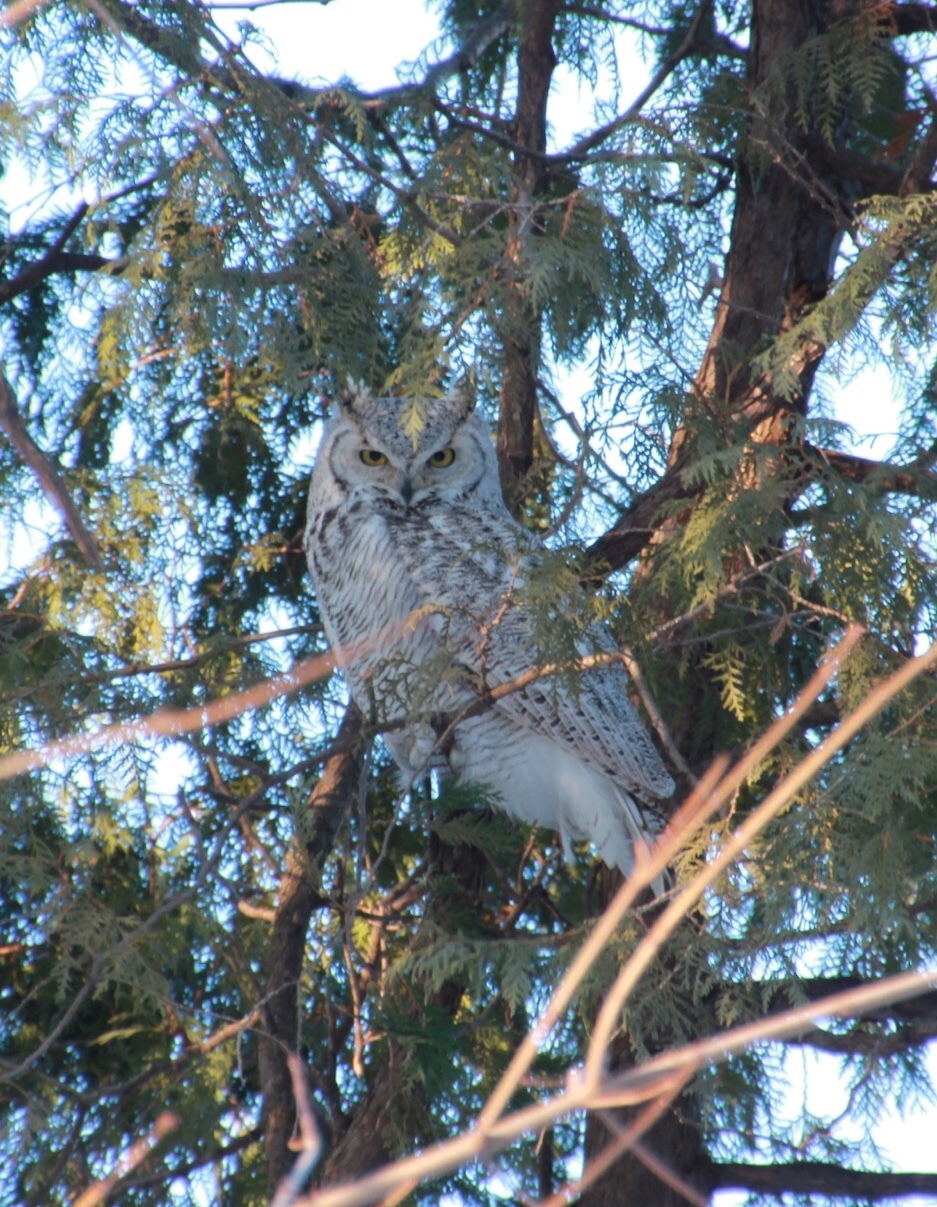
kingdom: Animalia
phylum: Chordata
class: Aves
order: Strigiformes
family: Strigidae
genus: Bubo
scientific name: Bubo virginianus
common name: Great horned owl
